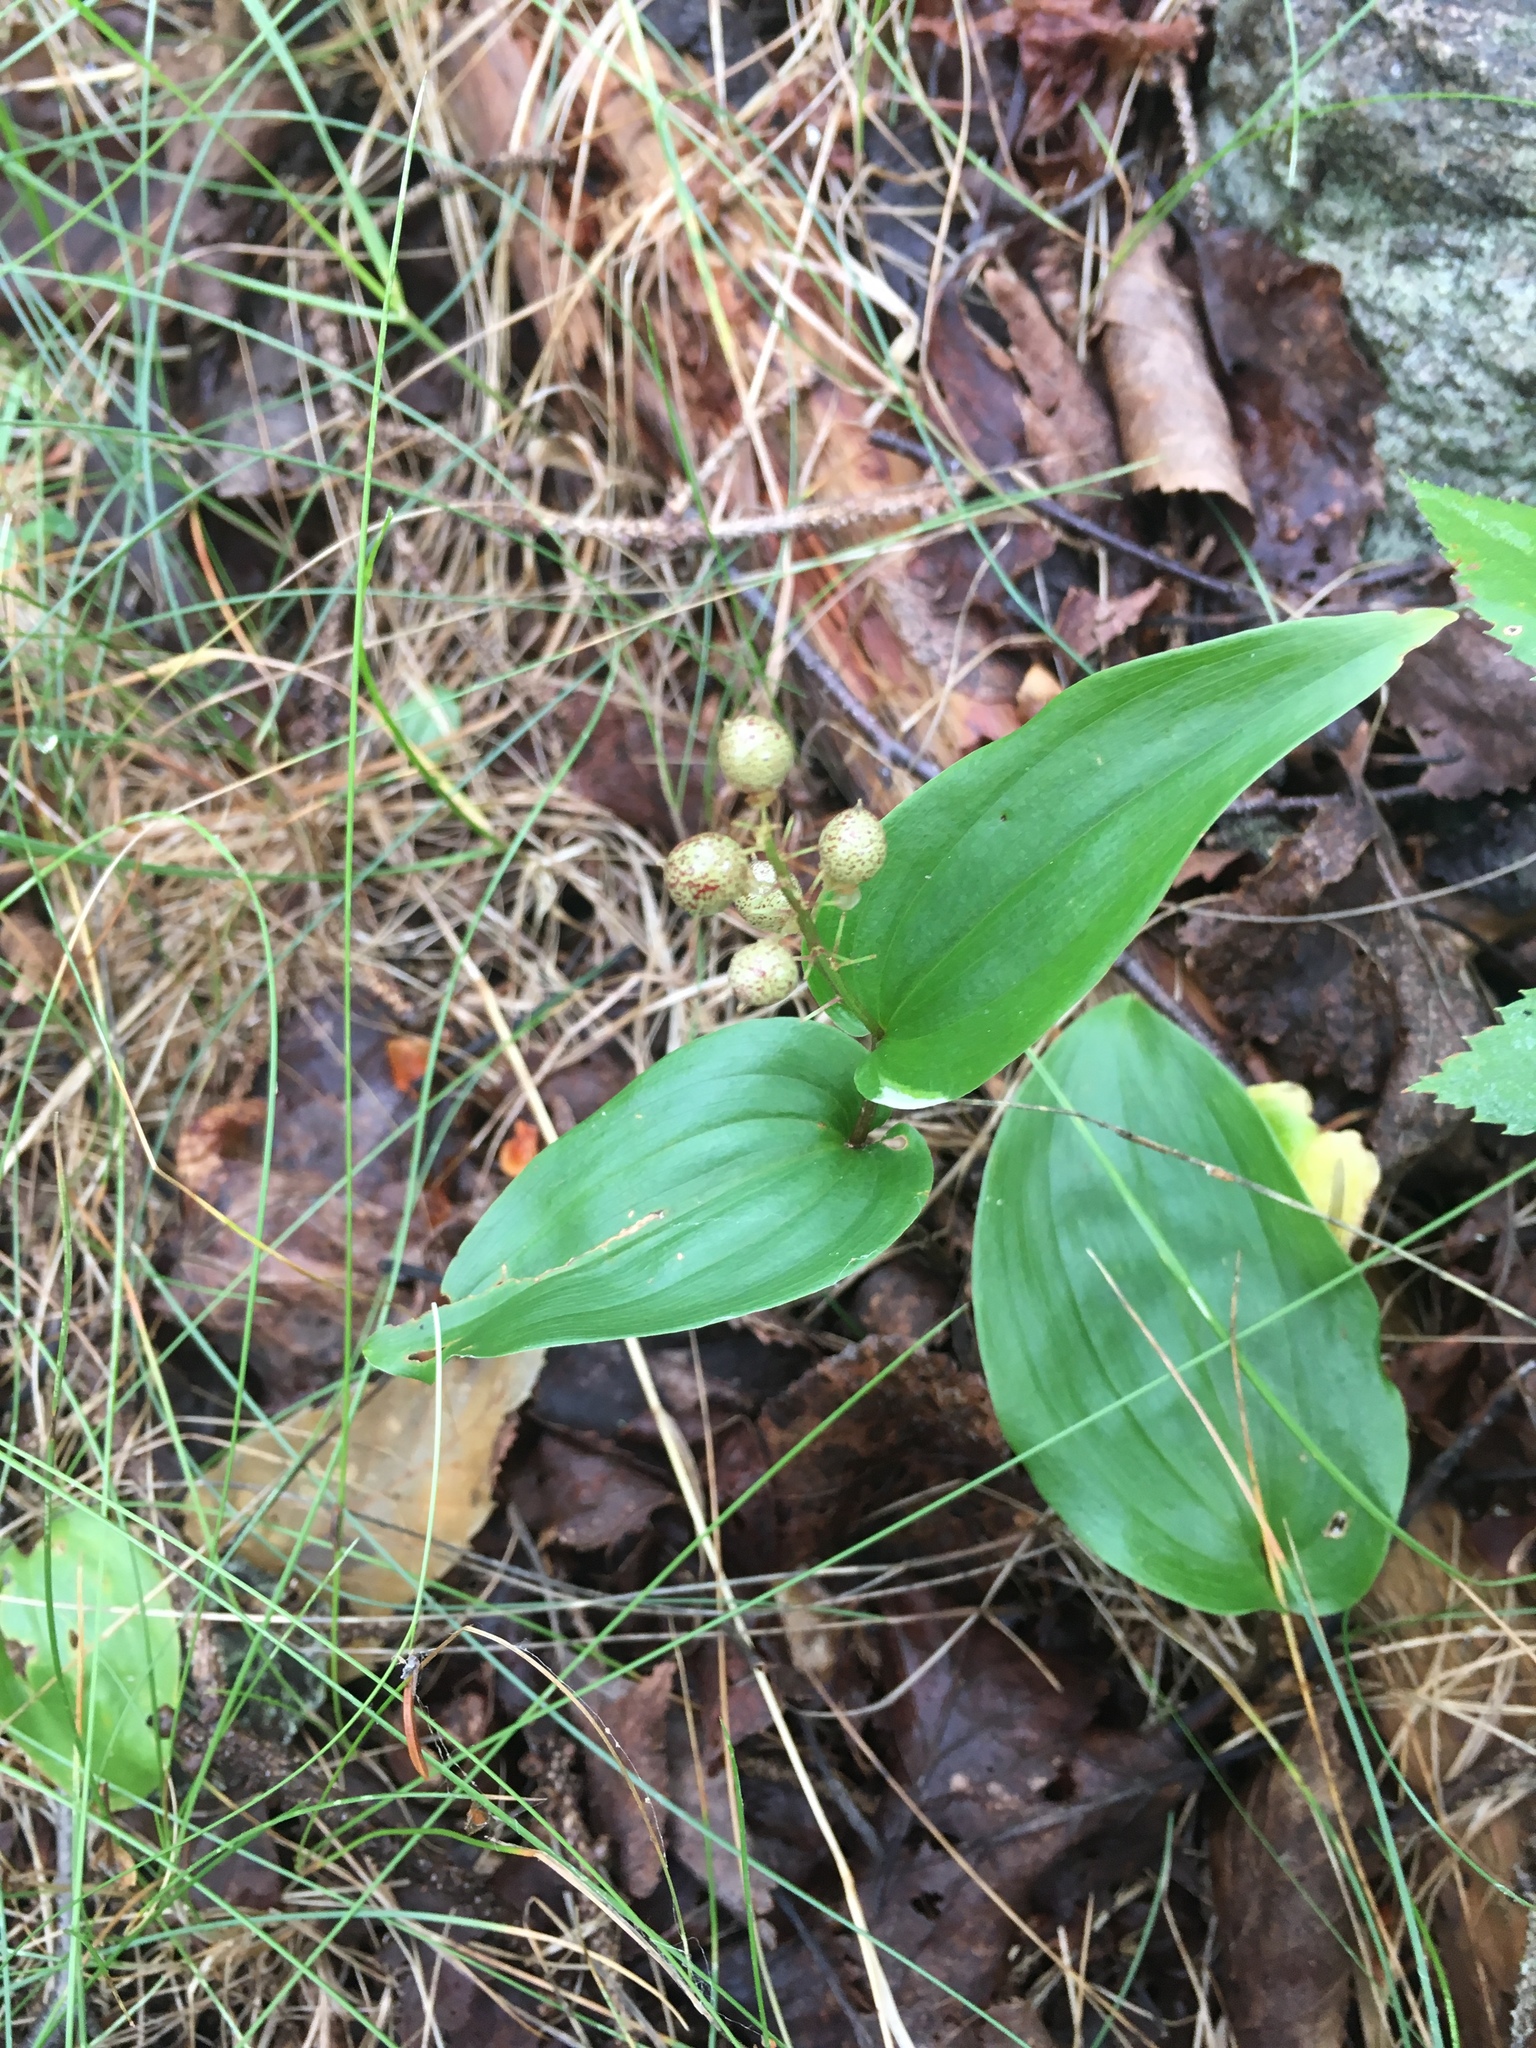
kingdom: Plantae
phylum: Tracheophyta
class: Liliopsida
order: Asparagales
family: Asparagaceae
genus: Maianthemum
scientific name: Maianthemum canadense
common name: False lily-of-the-valley
